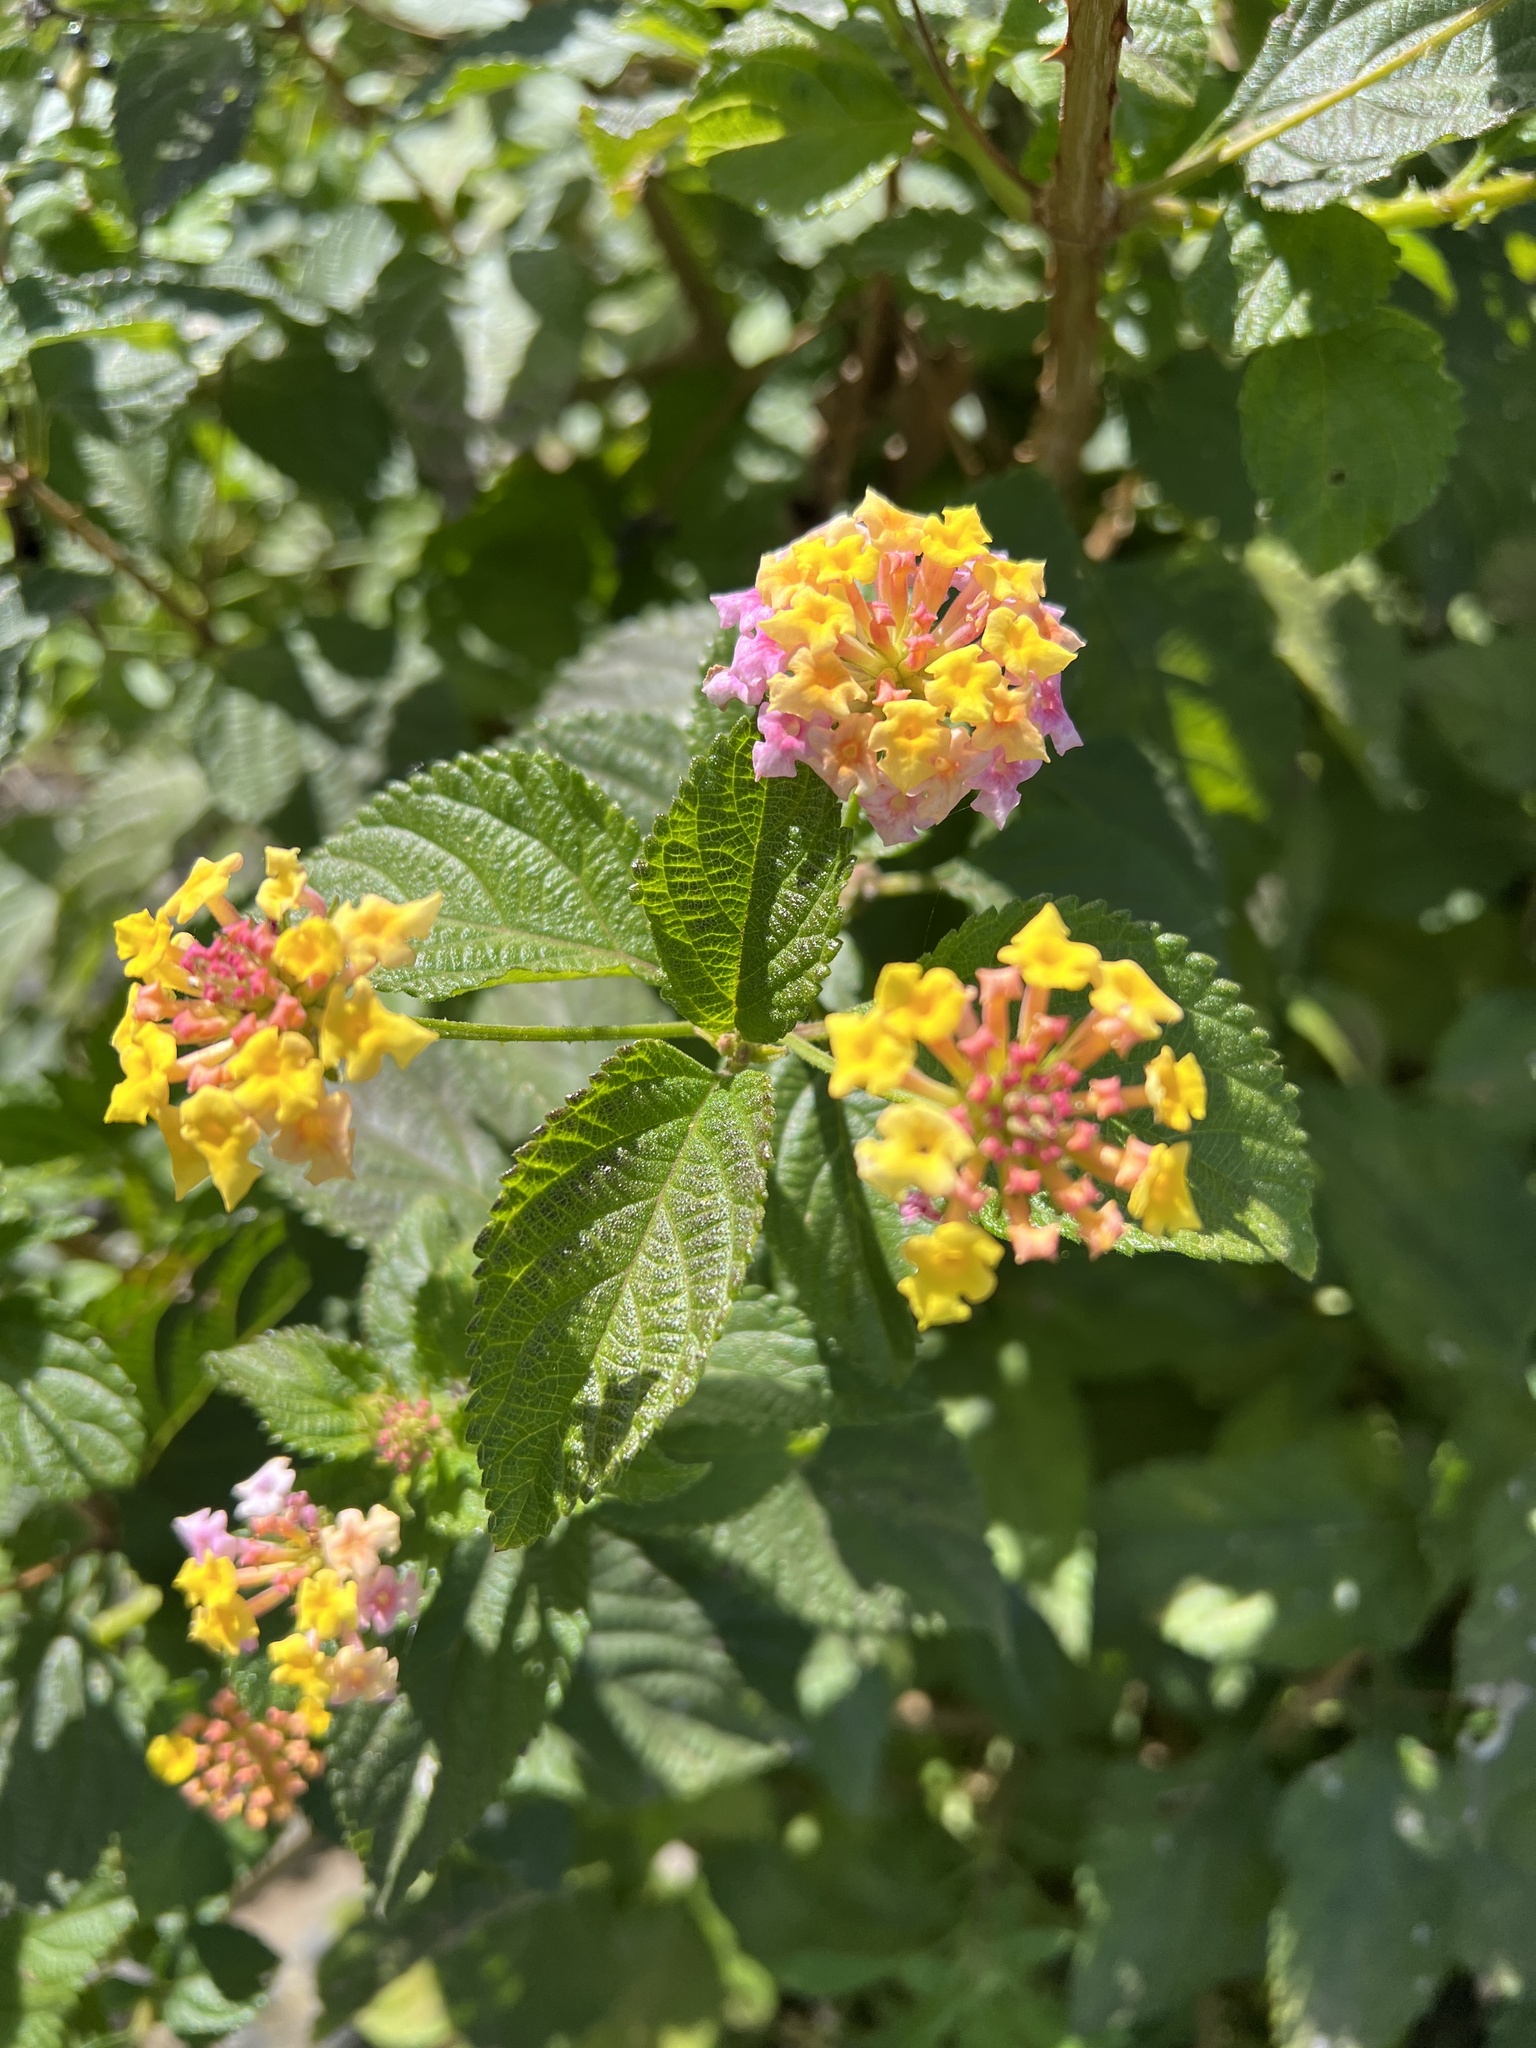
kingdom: Plantae
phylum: Tracheophyta
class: Magnoliopsida
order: Lamiales
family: Verbenaceae
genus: Lantana
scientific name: Lantana camara
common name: Lantana
